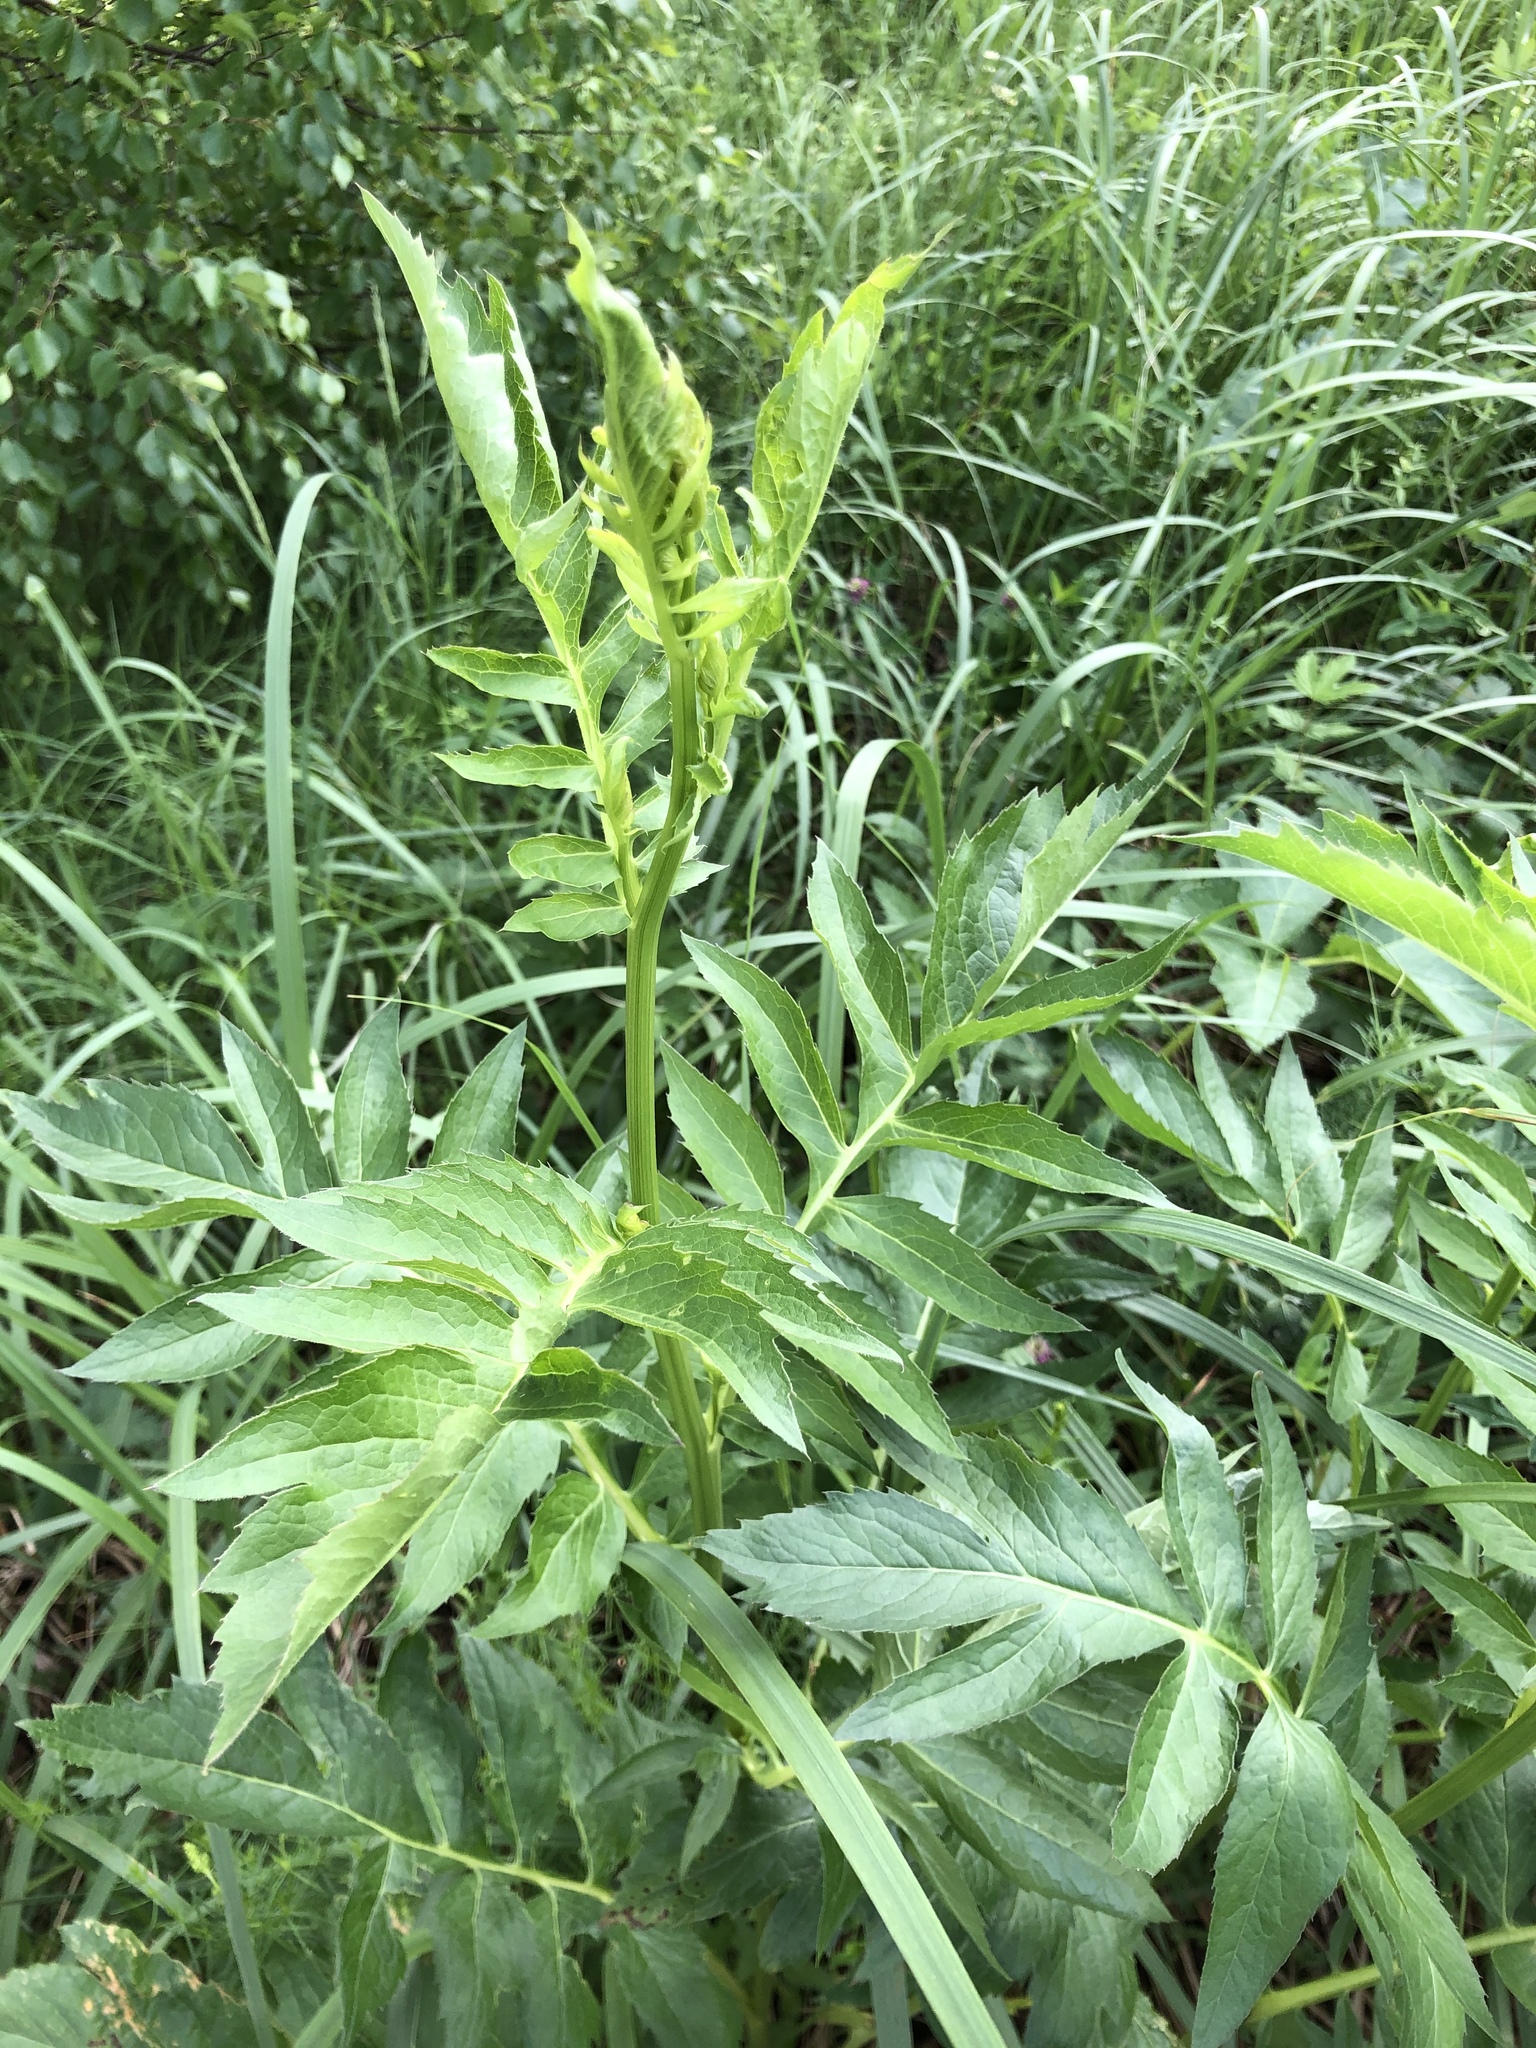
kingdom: Plantae
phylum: Tracheophyta
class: Magnoliopsida
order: Asterales
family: Asteraceae
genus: Serratula
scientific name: Serratula coronata
